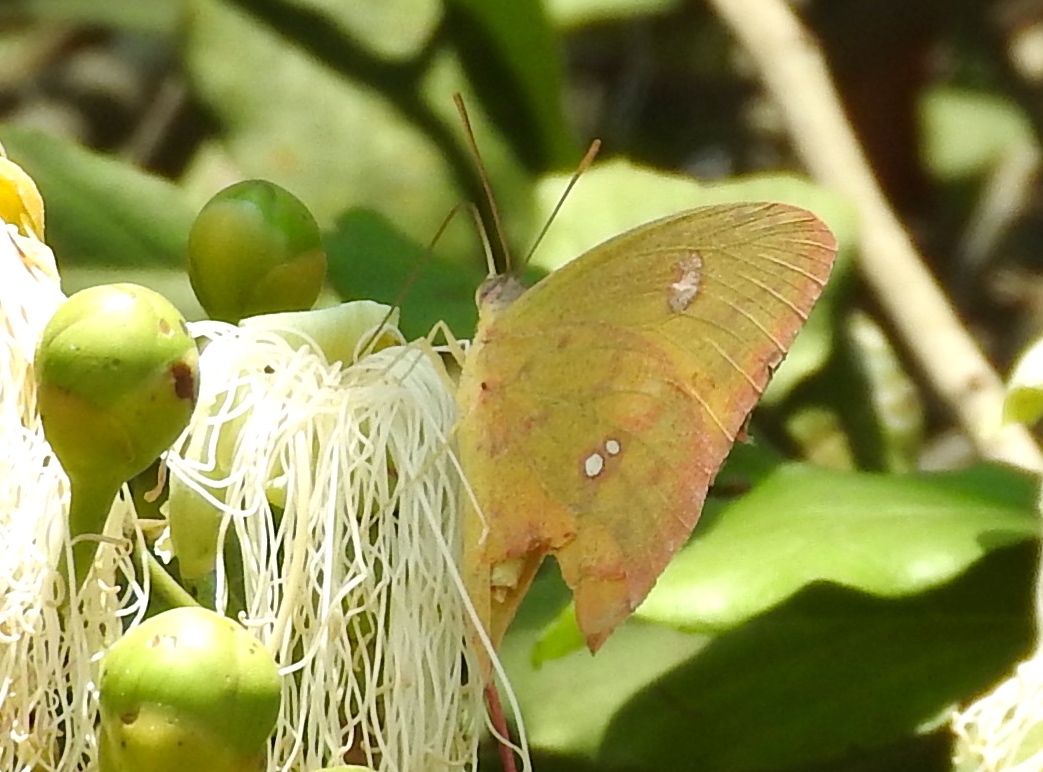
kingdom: Animalia
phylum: Arthropoda
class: Insecta
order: Lepidoptera
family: Pieridae
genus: Phoebis
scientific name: Phoebis marcellina
